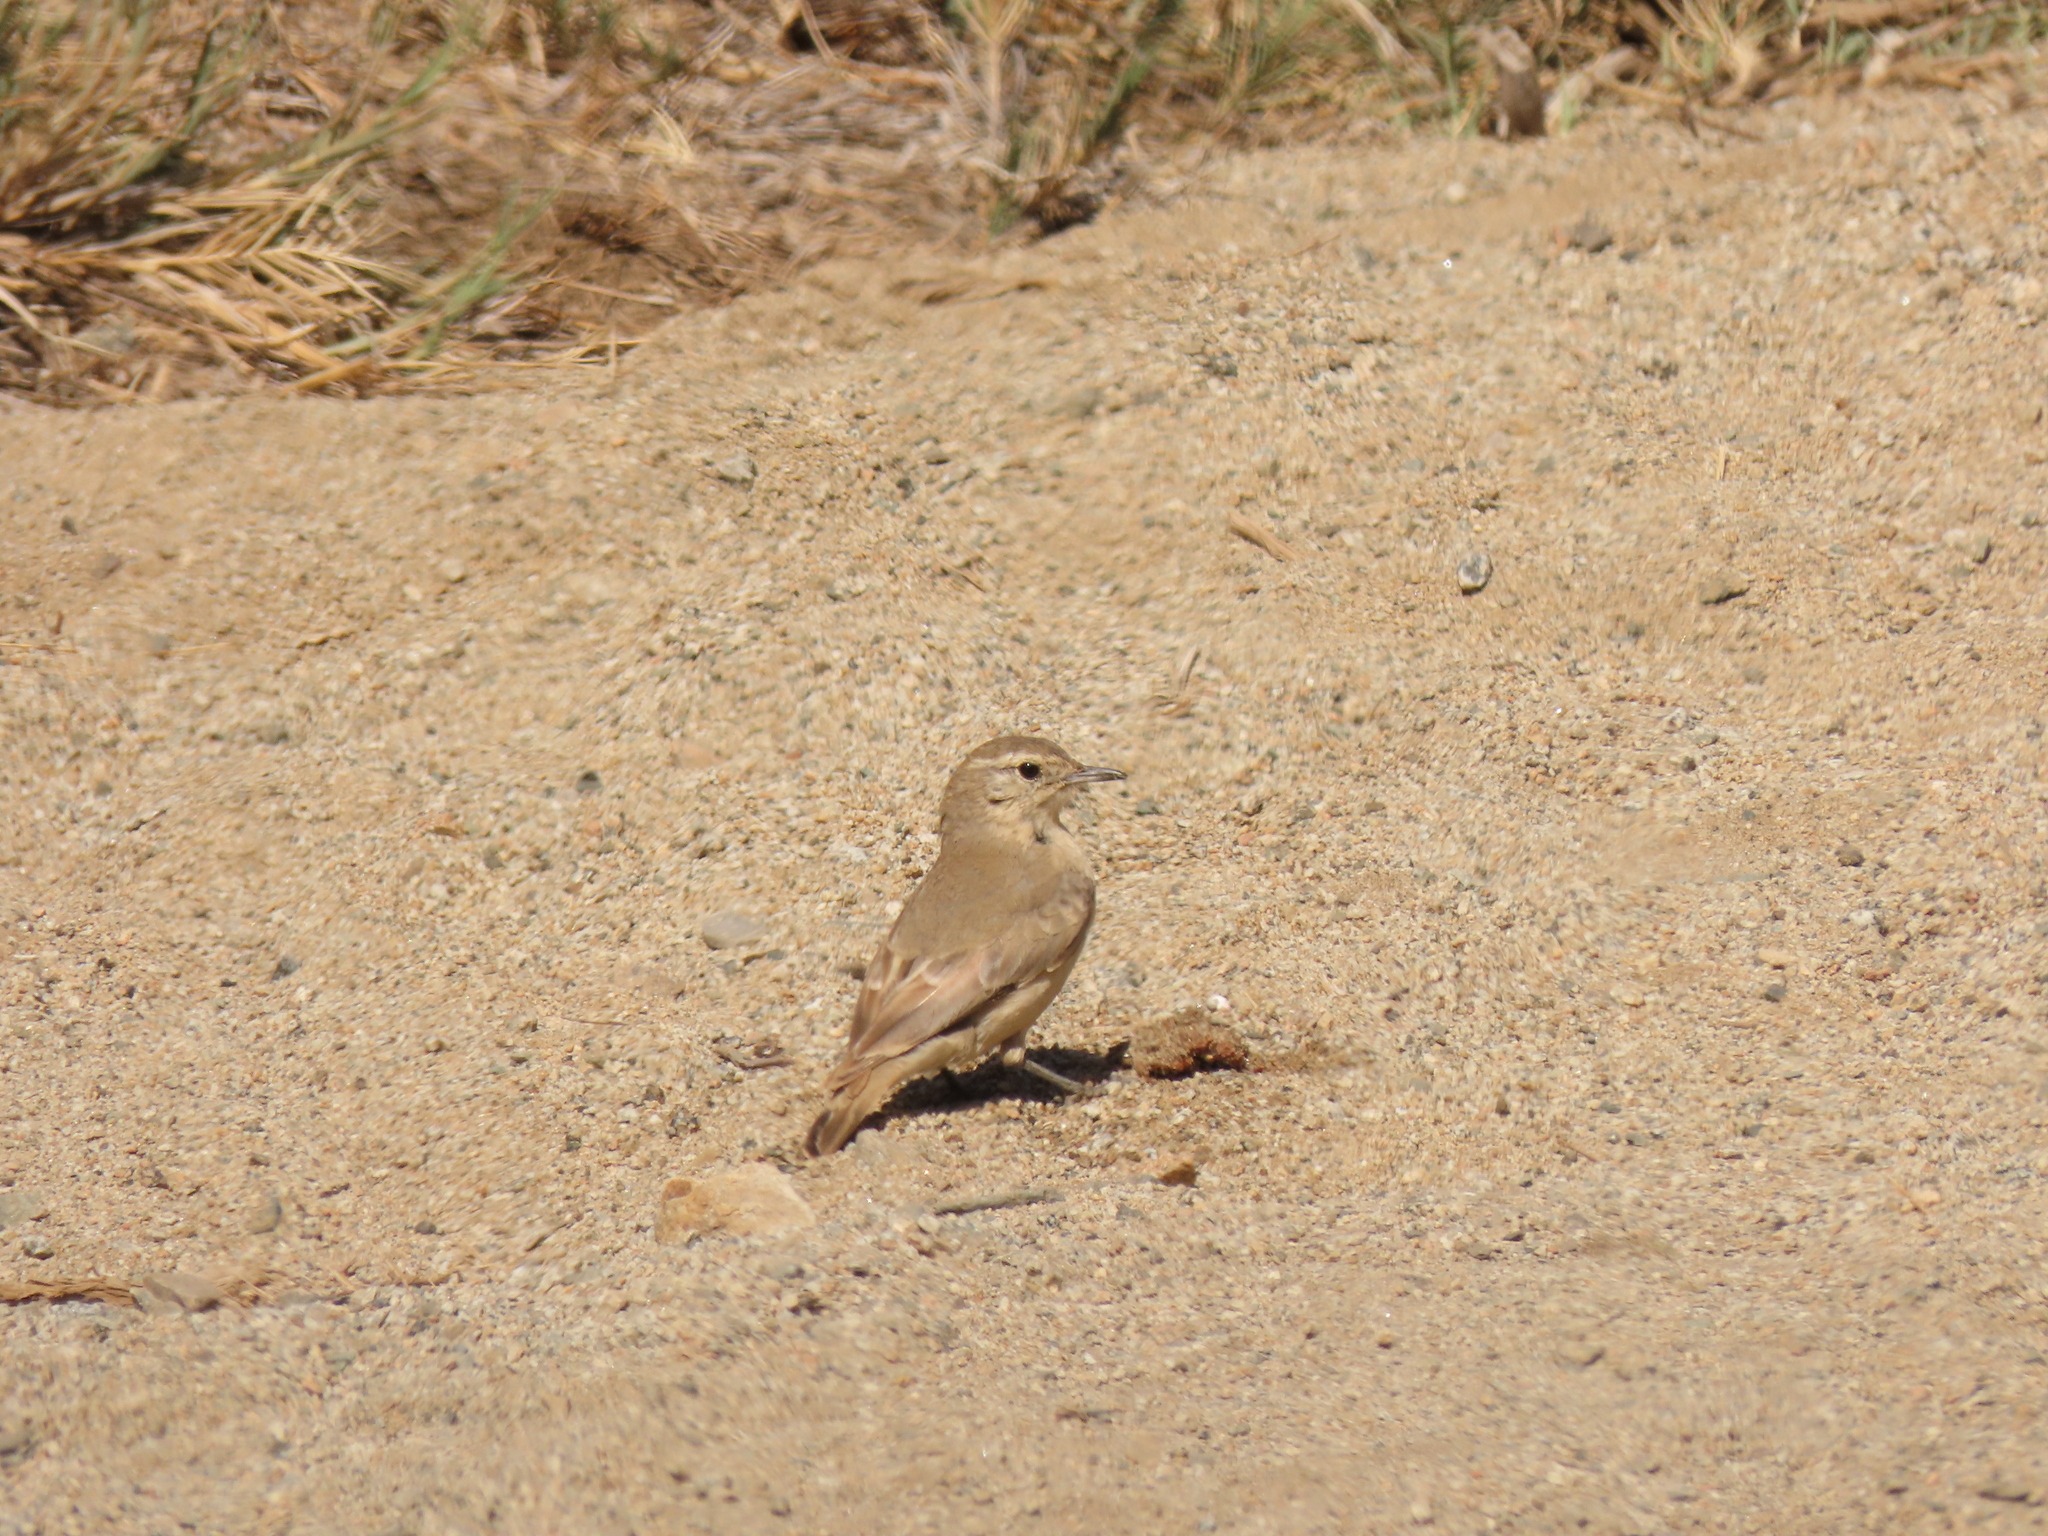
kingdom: Animalia
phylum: Chordata
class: Aves
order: Passeriformes
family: Furnariidae
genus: Geositta
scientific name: Geositta maritima
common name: Greyish miner
